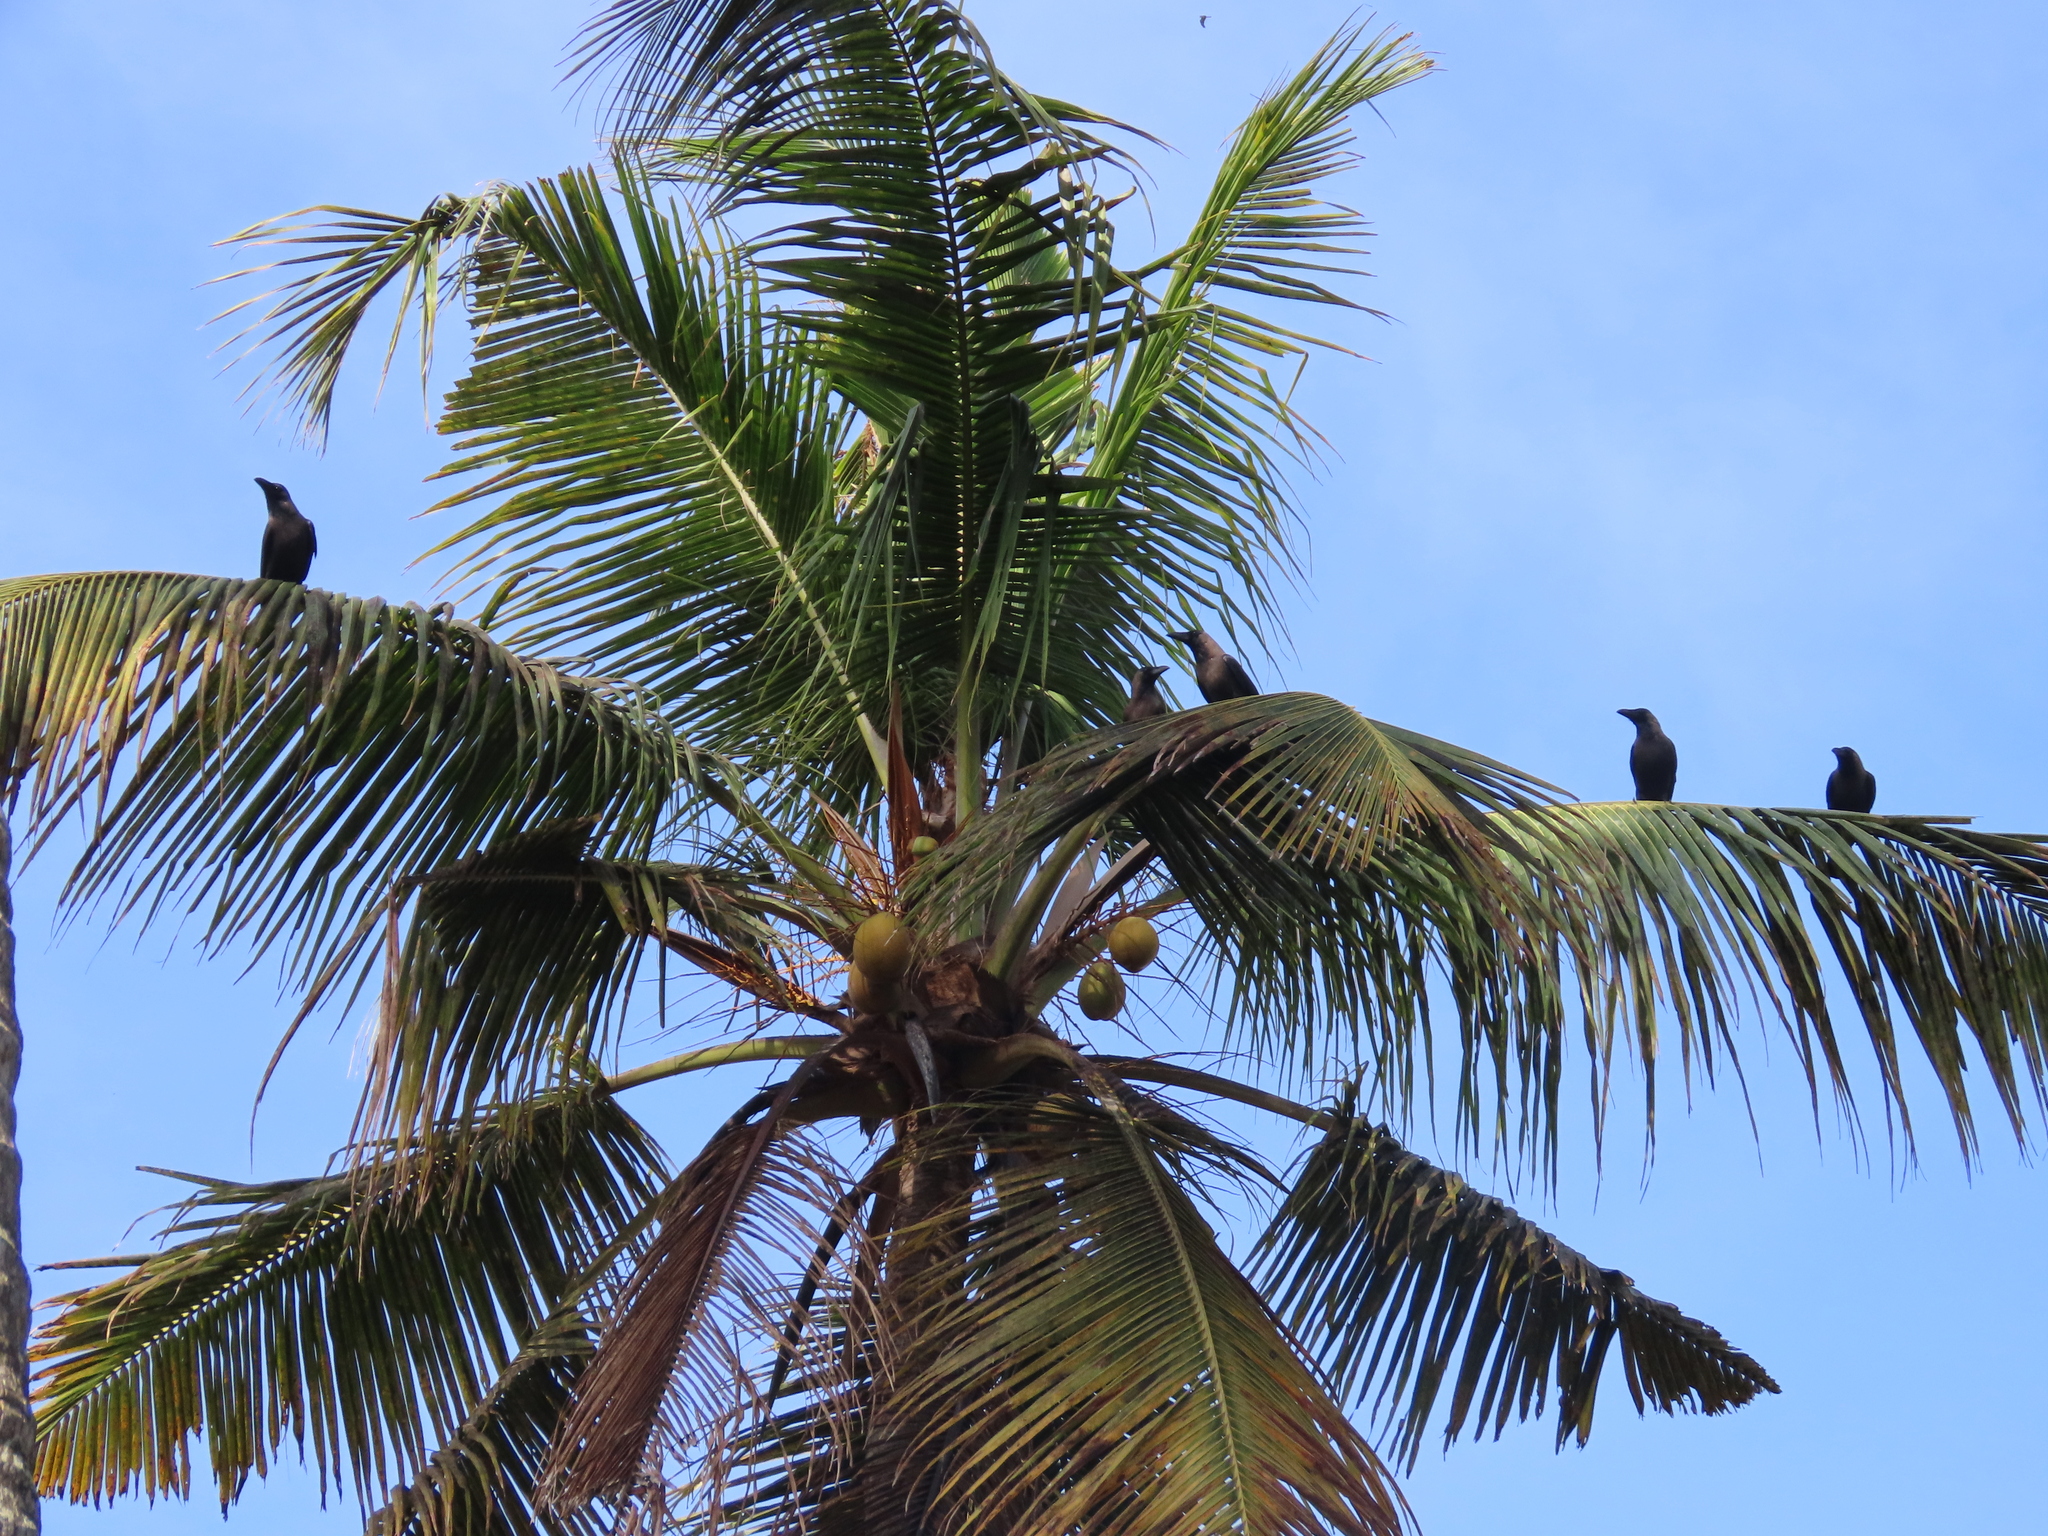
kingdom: Animalia
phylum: Chordata
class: Aves
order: Passeriformes
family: Corvidae
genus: Corvus
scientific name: Corvus splendens
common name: House crow
